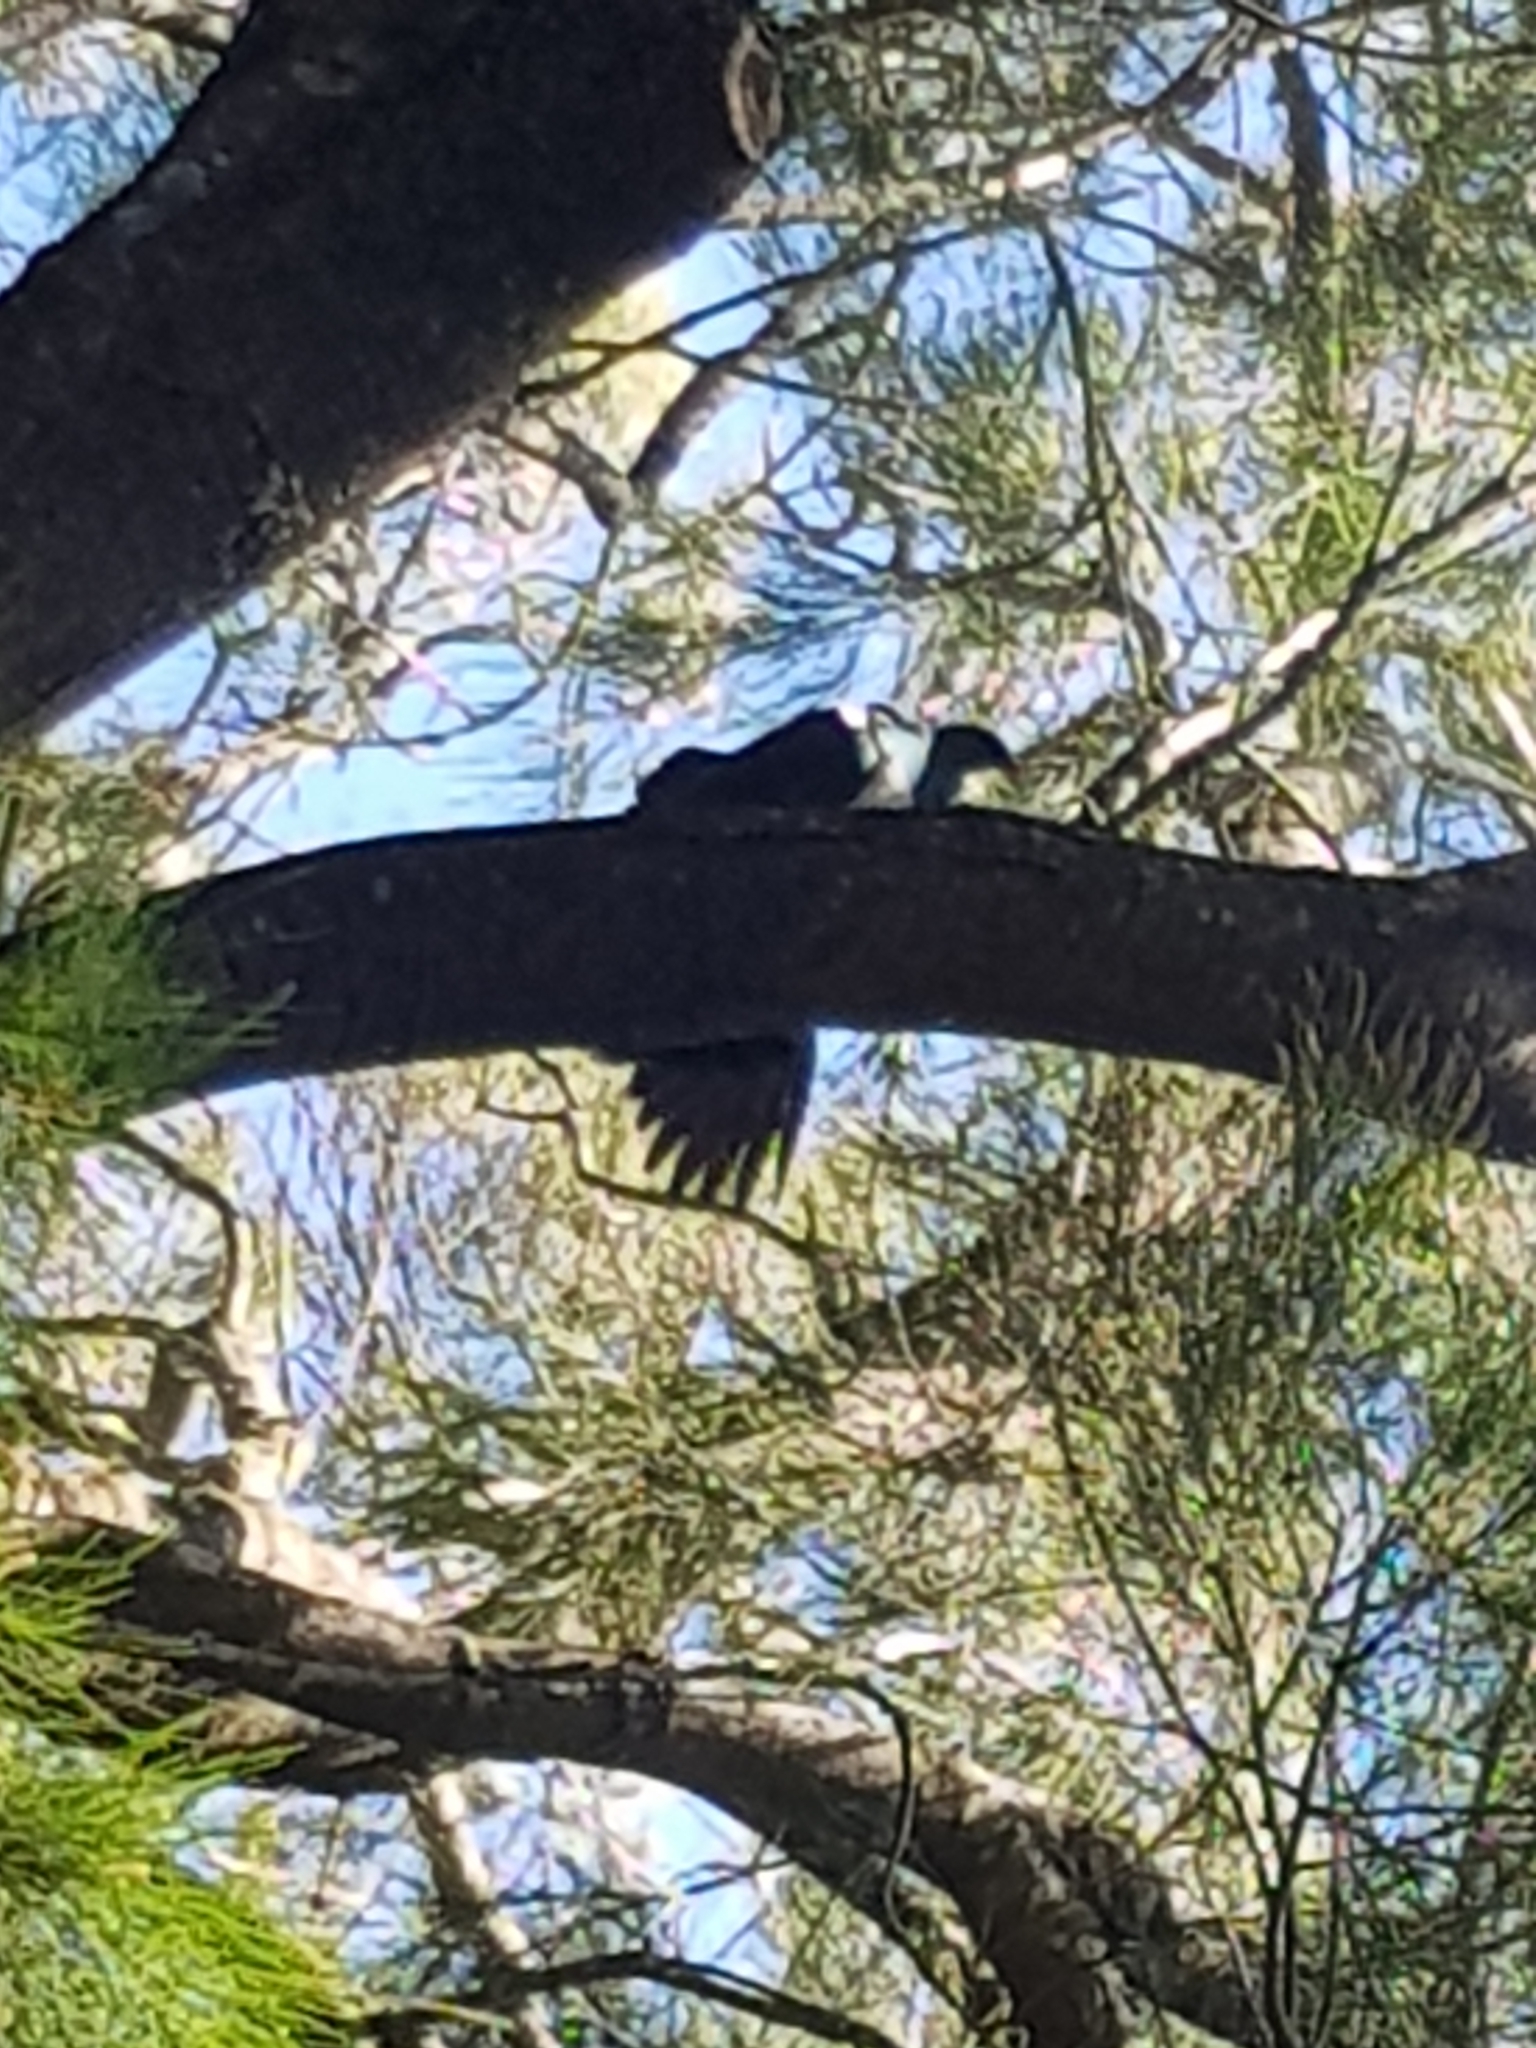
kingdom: Animalia
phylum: Chordata
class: Aves
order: Columbiformes
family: Columbidae
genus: Hemiphaga
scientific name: Hemiphaga novaeseelandiae
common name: New zealand pigeon
